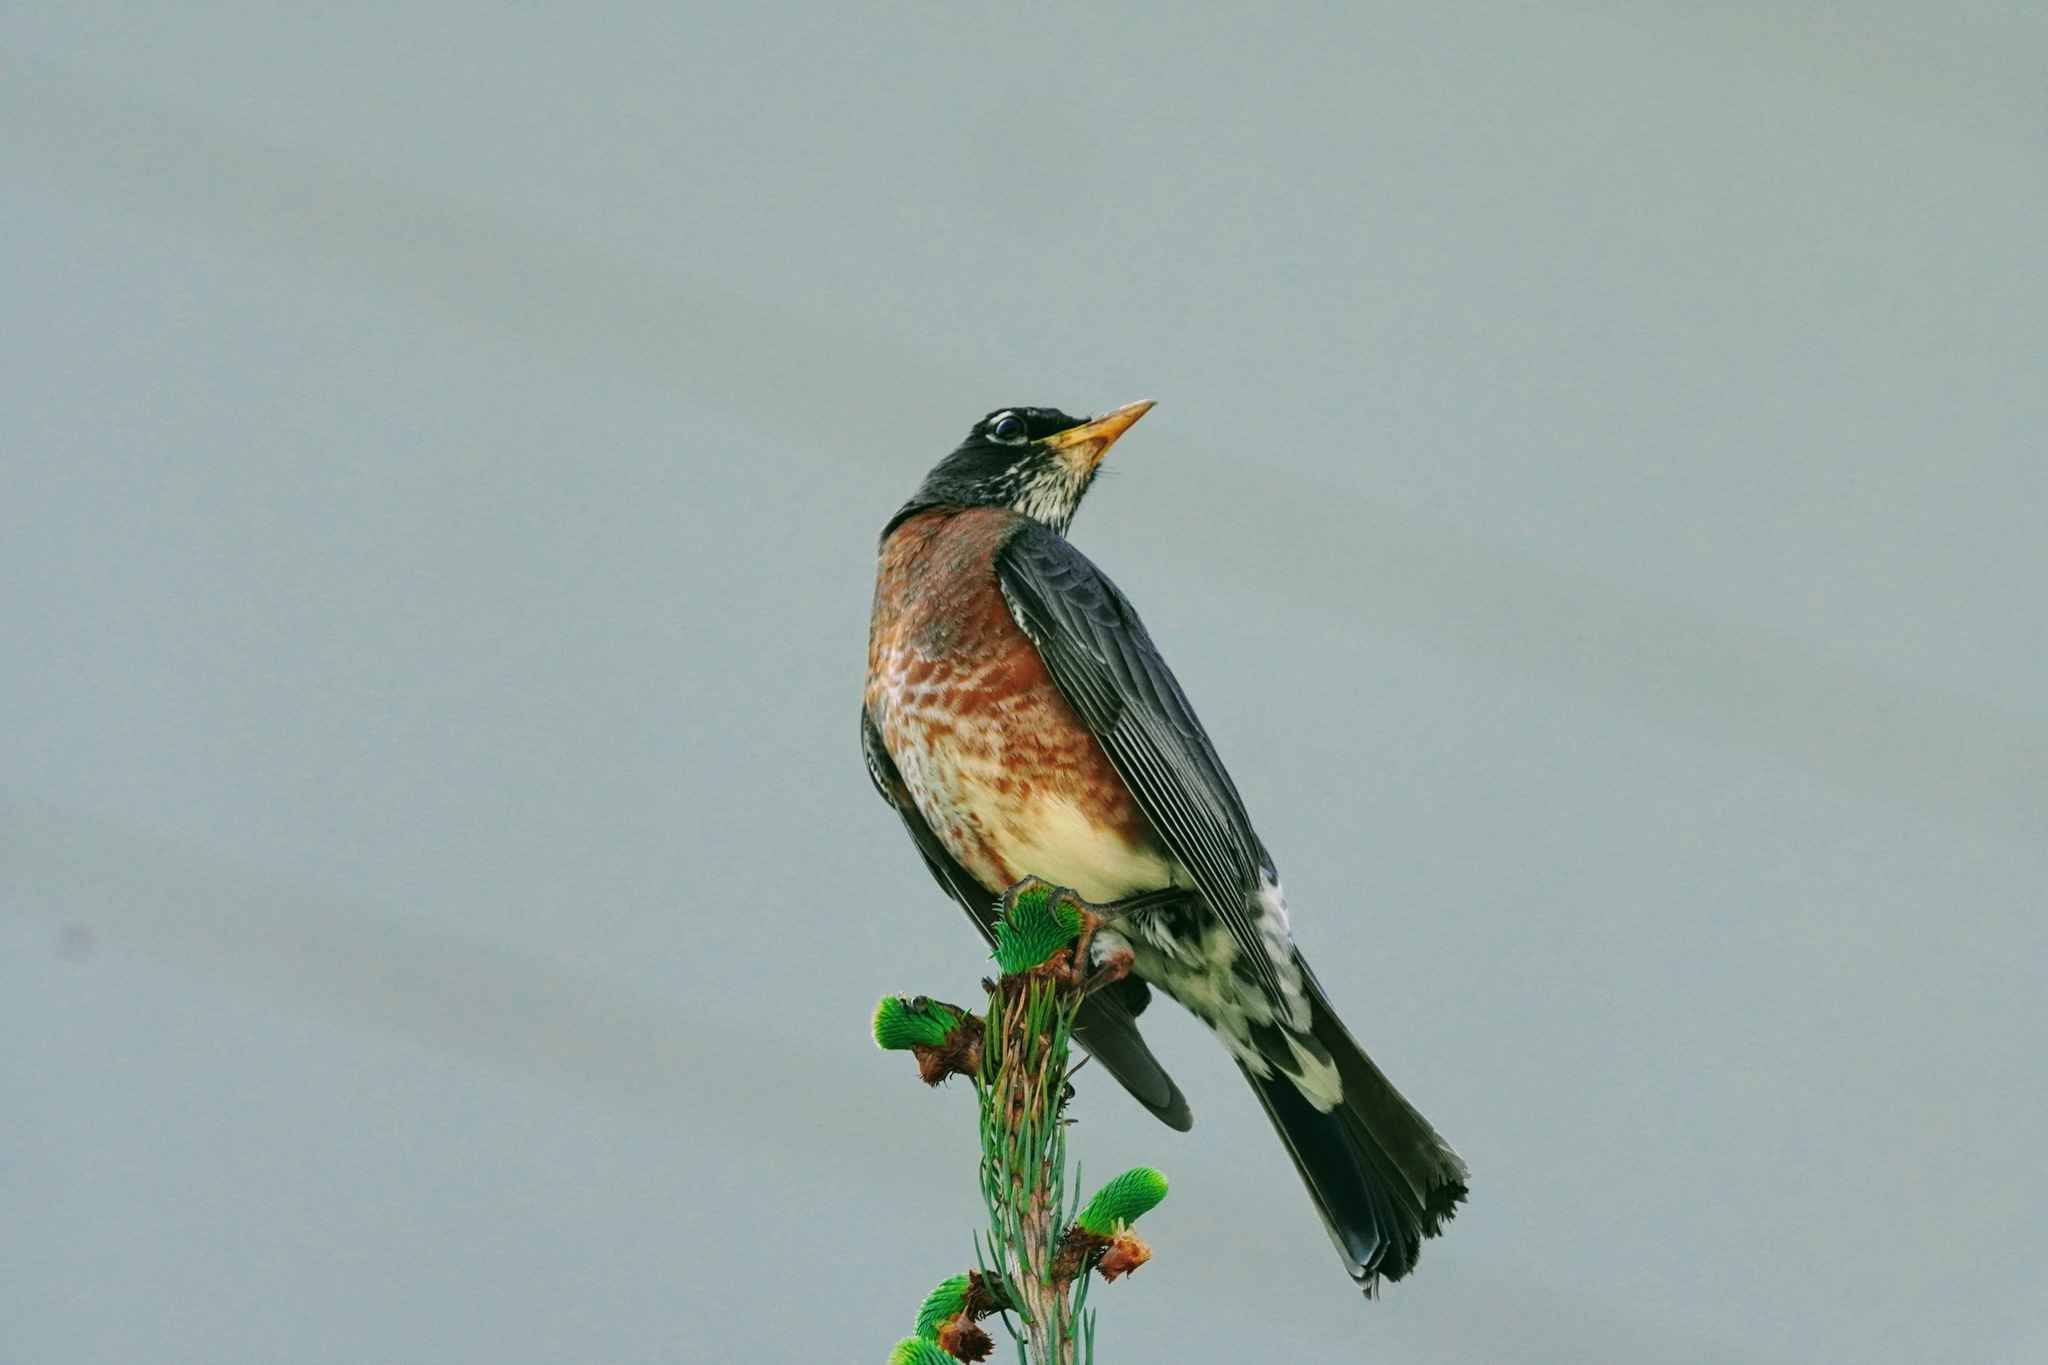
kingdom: Animalia
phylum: Chordata
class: Aves
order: Passeriformes
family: Turdidae
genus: Turdus
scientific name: Turdus migratorius
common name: American robin
